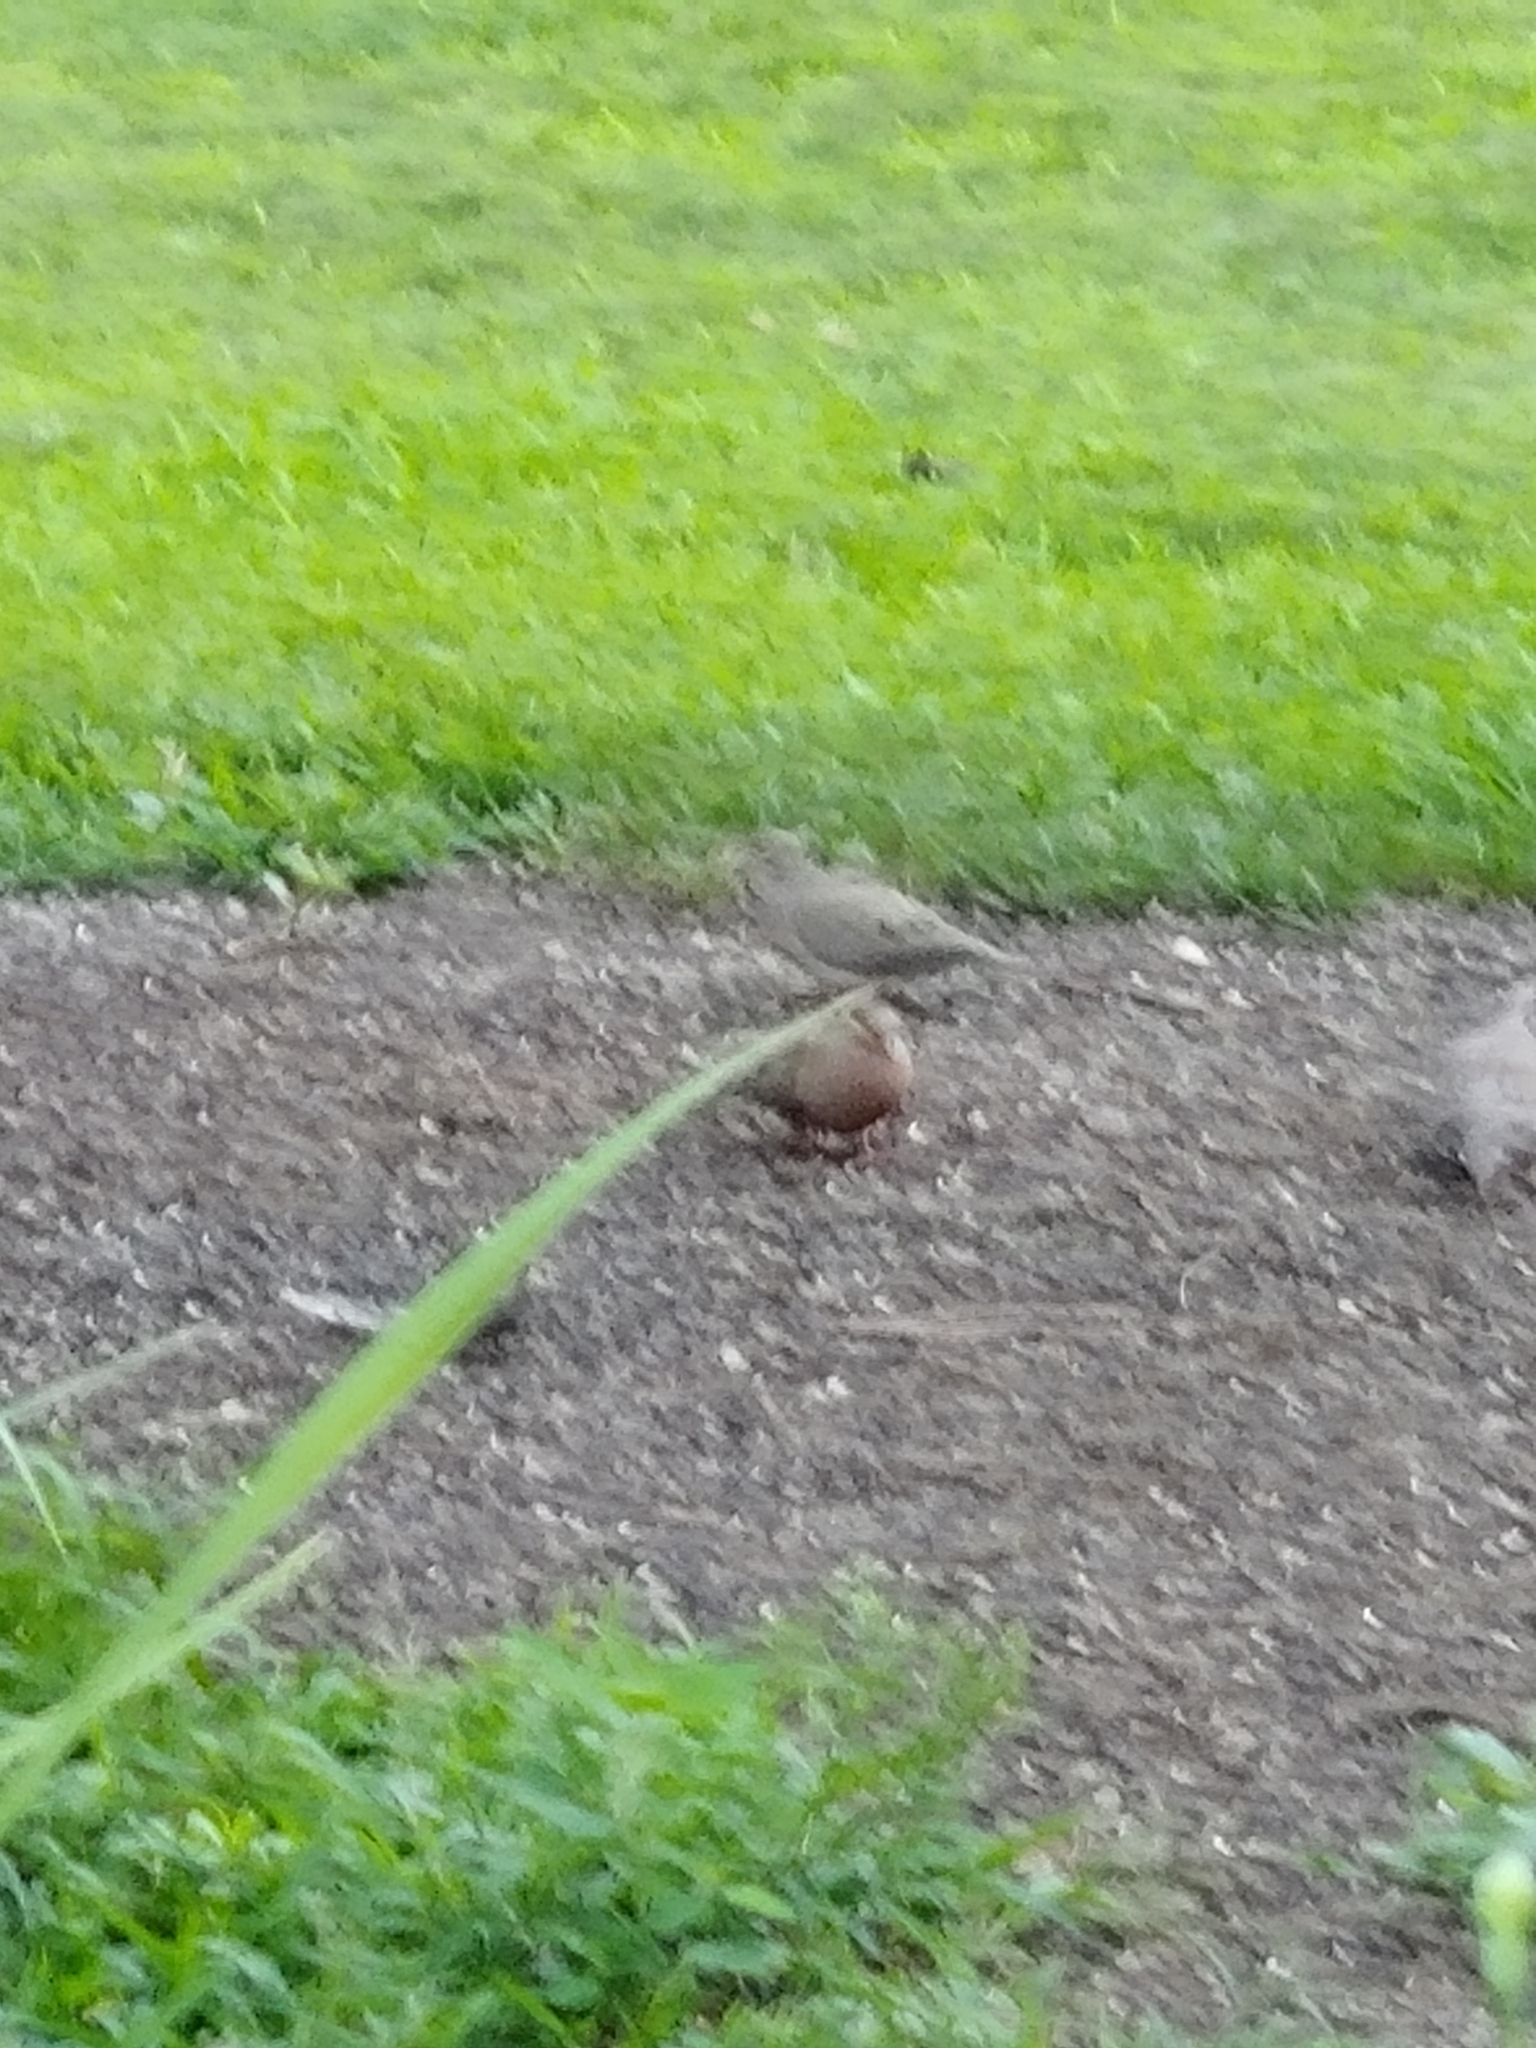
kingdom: Animalia
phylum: Chordata
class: Aves
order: Columbiformes
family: Columbidae
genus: Zenaida
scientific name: Zenaida macroura
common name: Mourning dove
